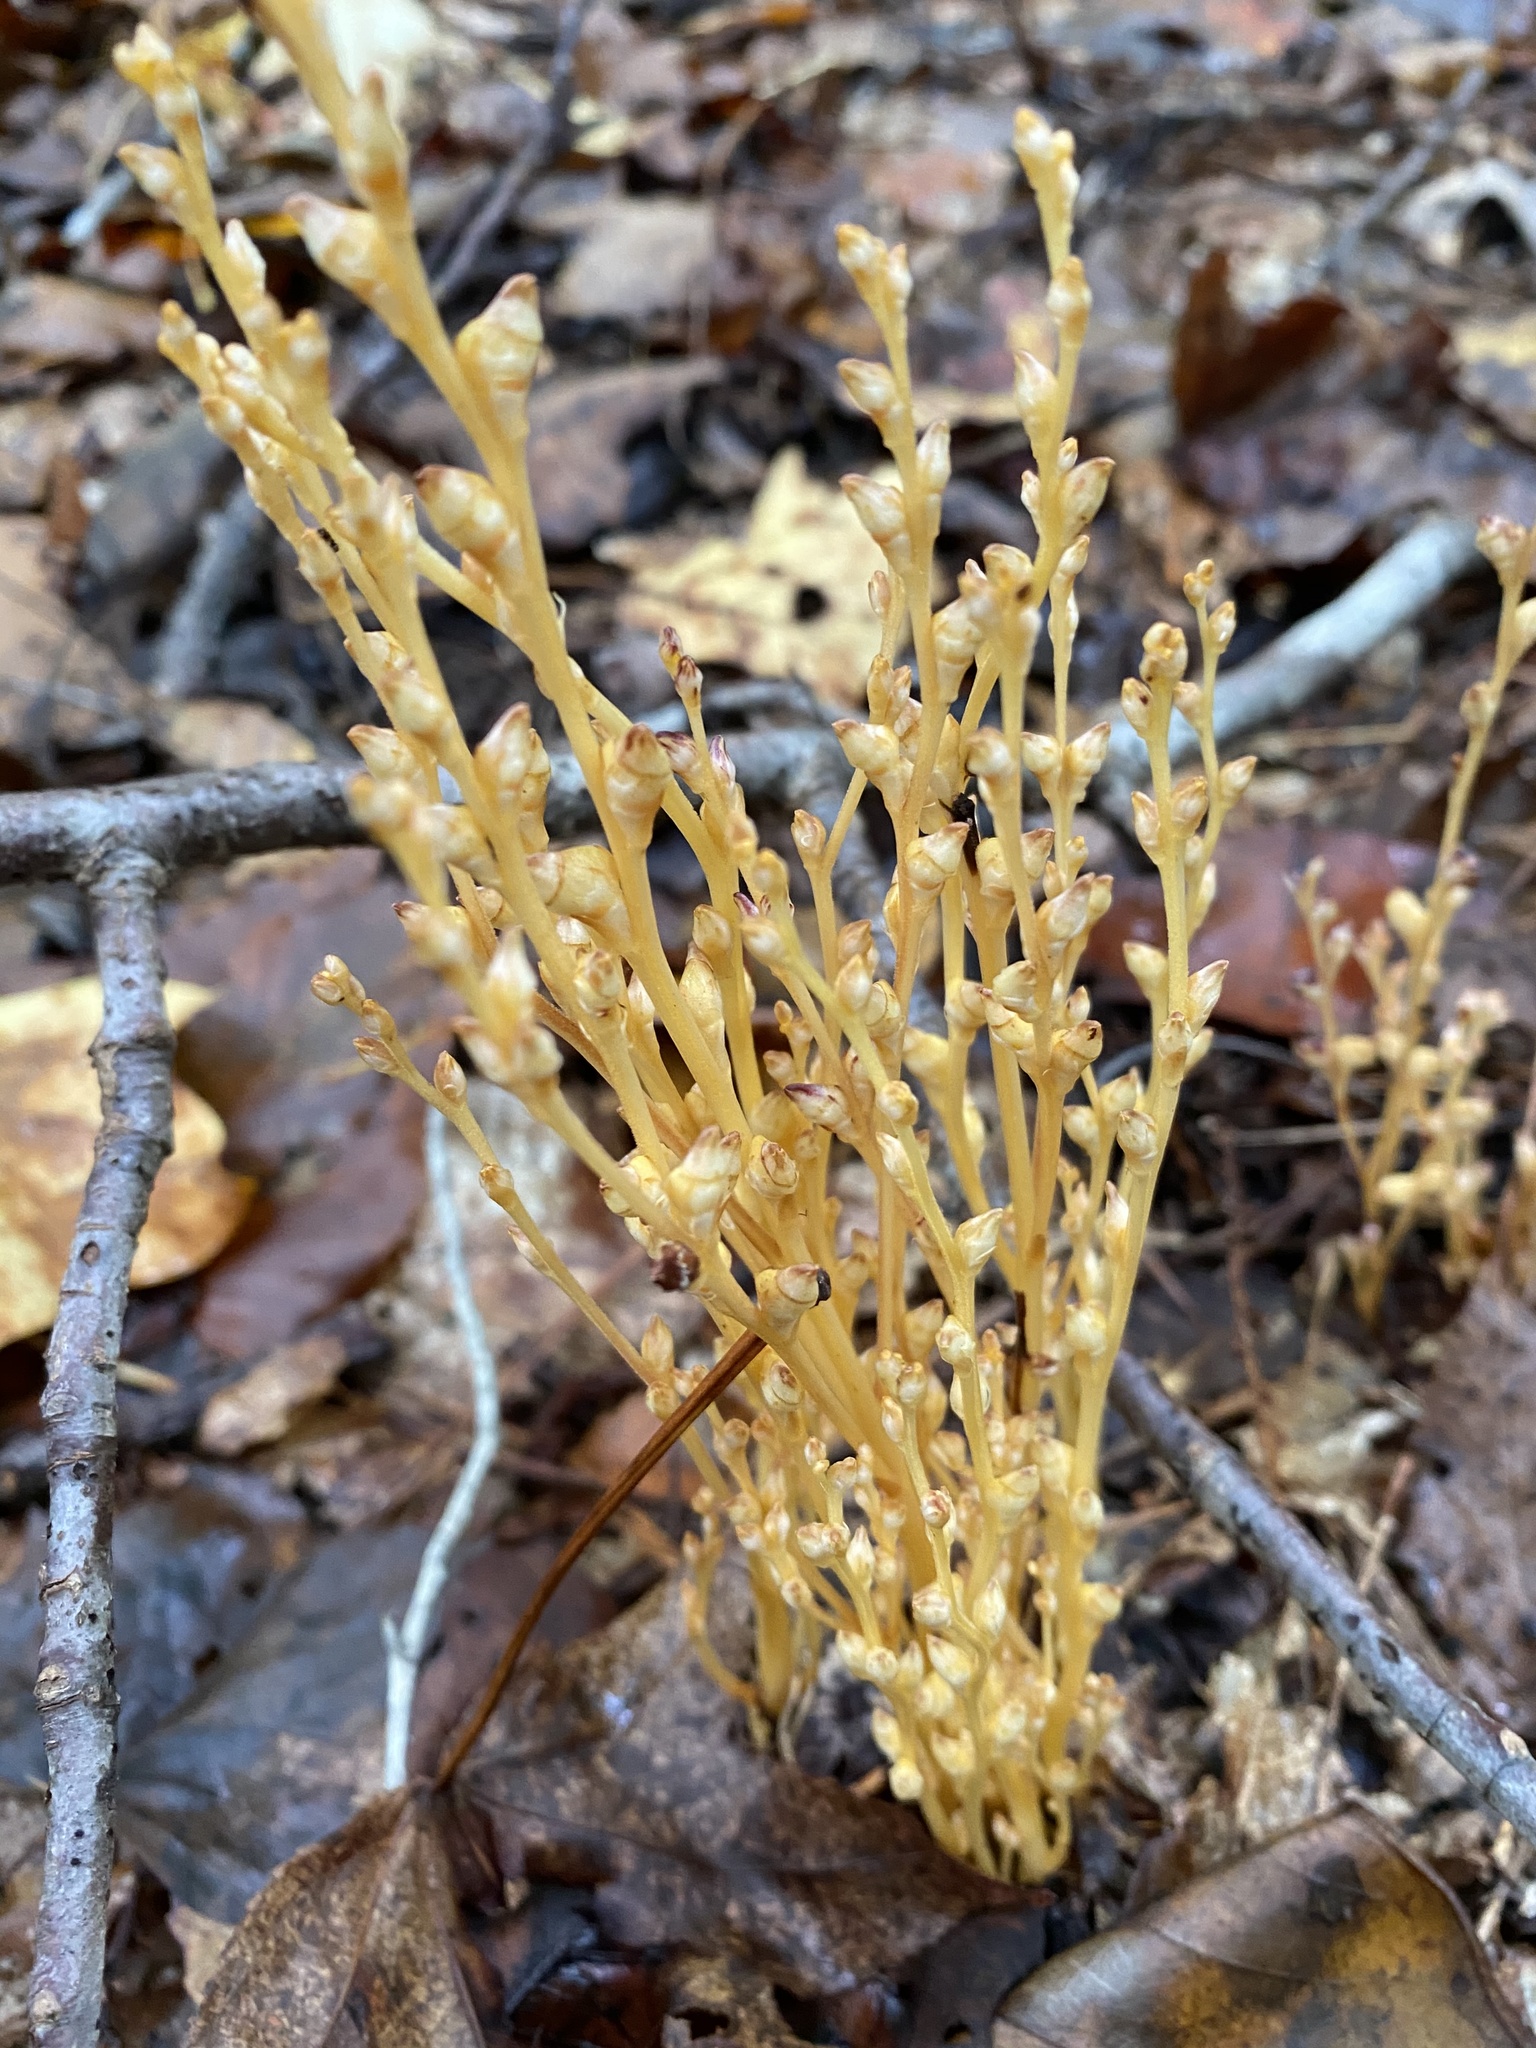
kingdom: Plantae
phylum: Tracheophyta
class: Magnoliopsida
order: Lamiales
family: Orobanchaceae
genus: Epifagus
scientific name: Epifagus virginiana
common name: Beechdrops
